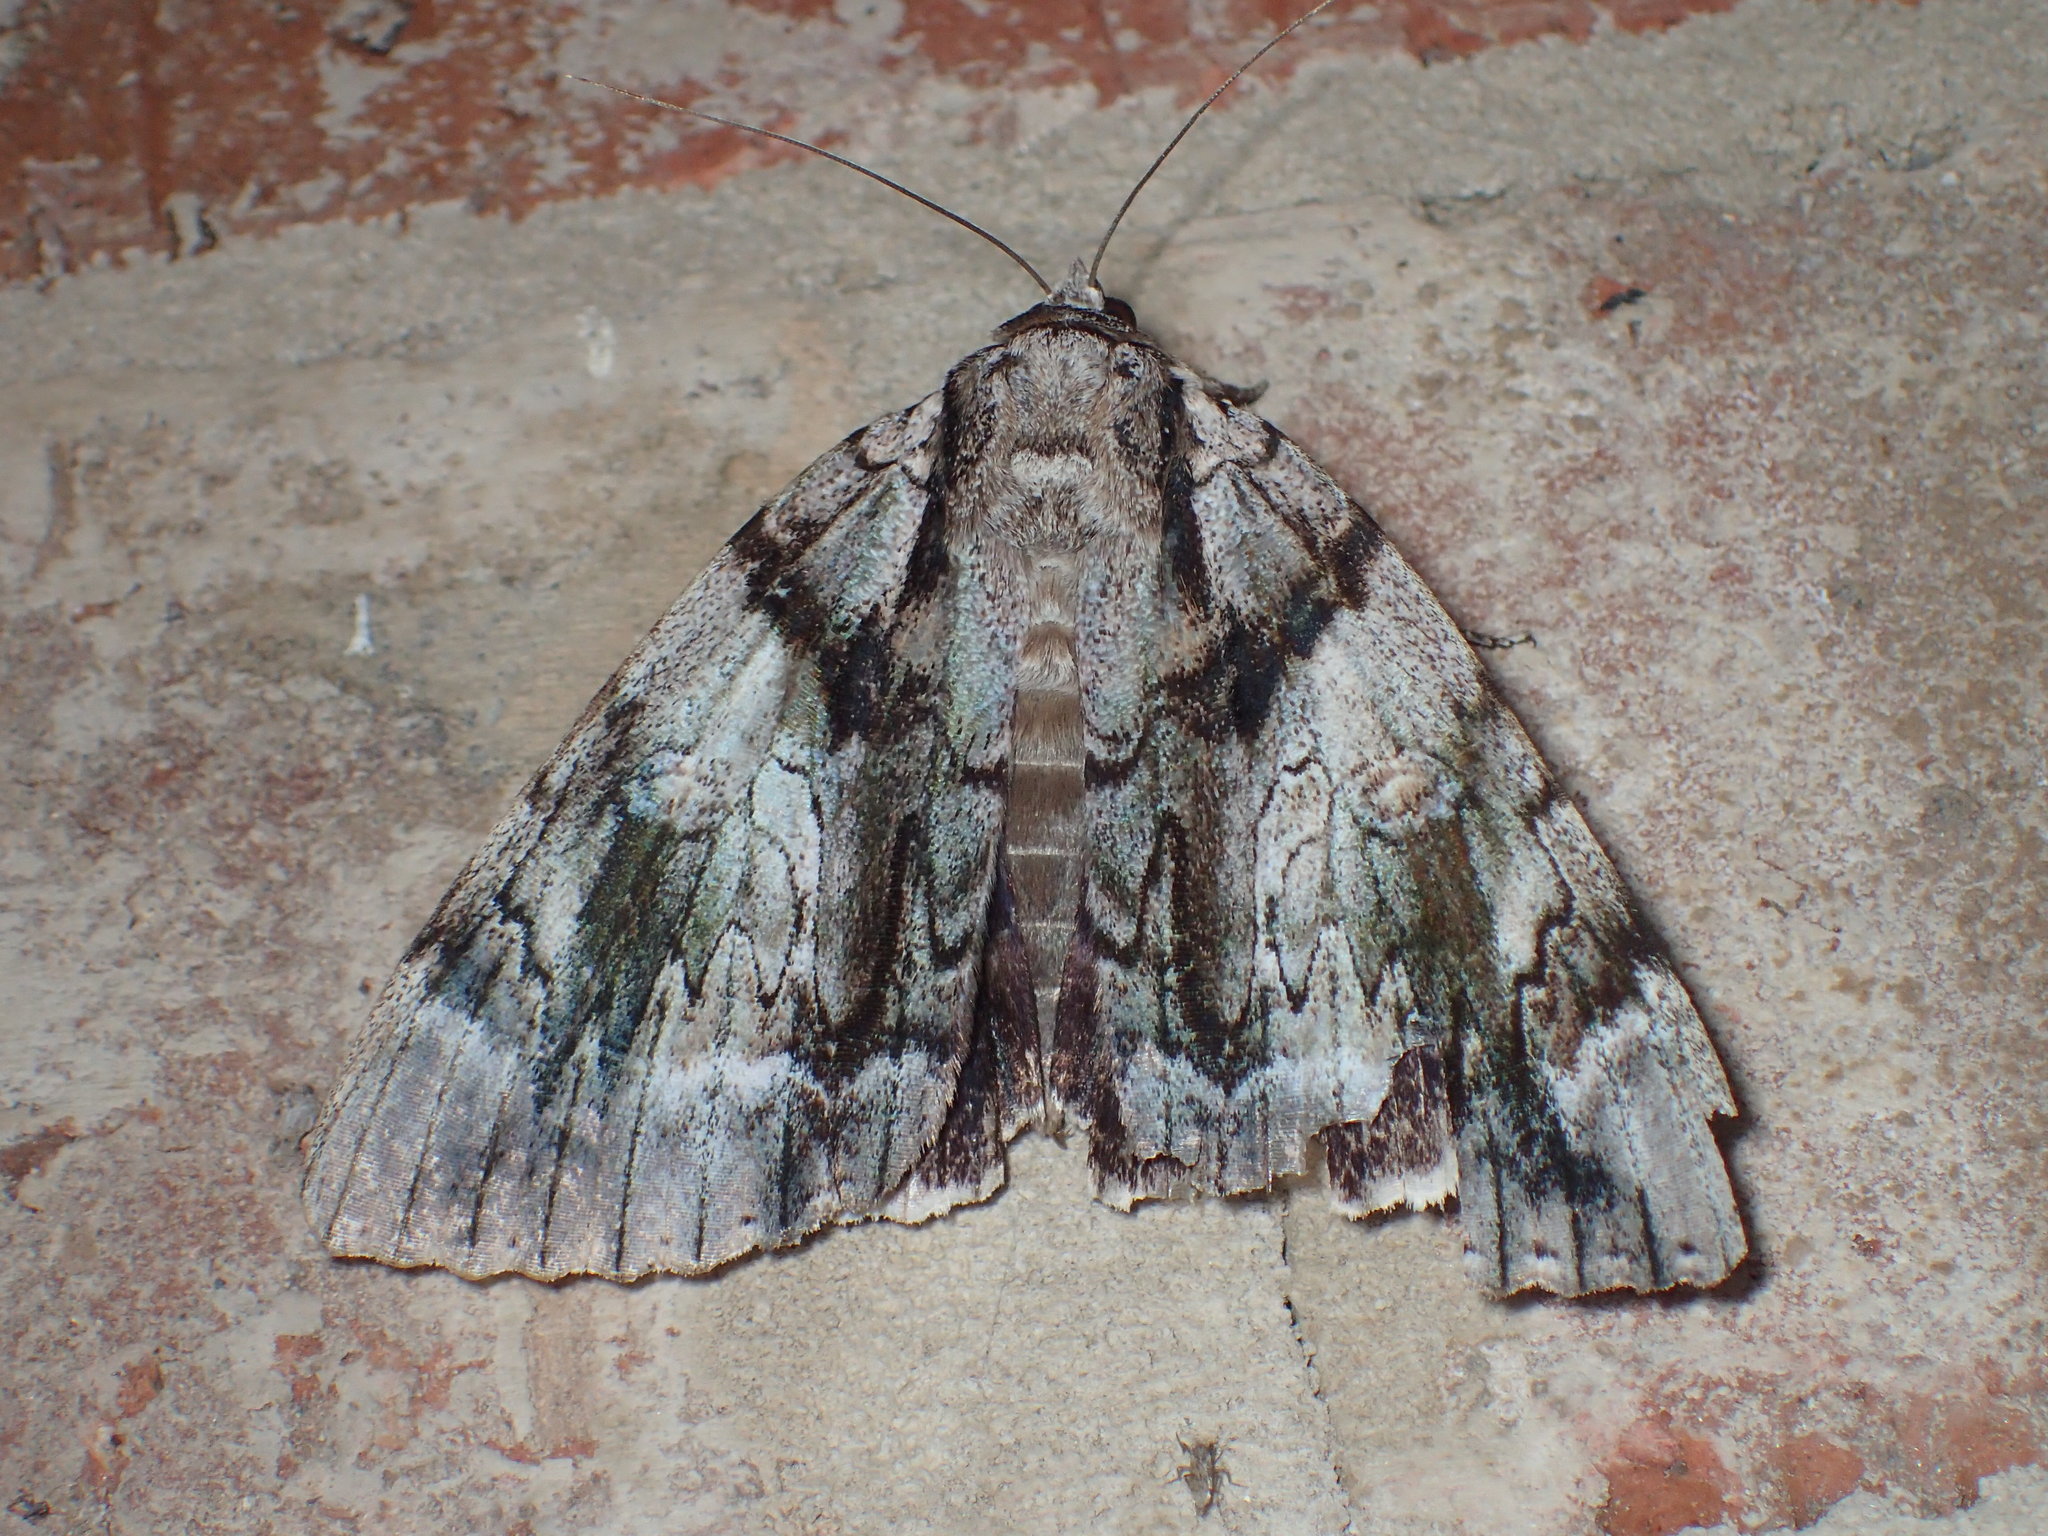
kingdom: Animalia
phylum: Arthropoda
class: Insecta
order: Lepidoptera
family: Erebidae
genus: Catocala
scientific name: Catocala vidua
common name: The widow
